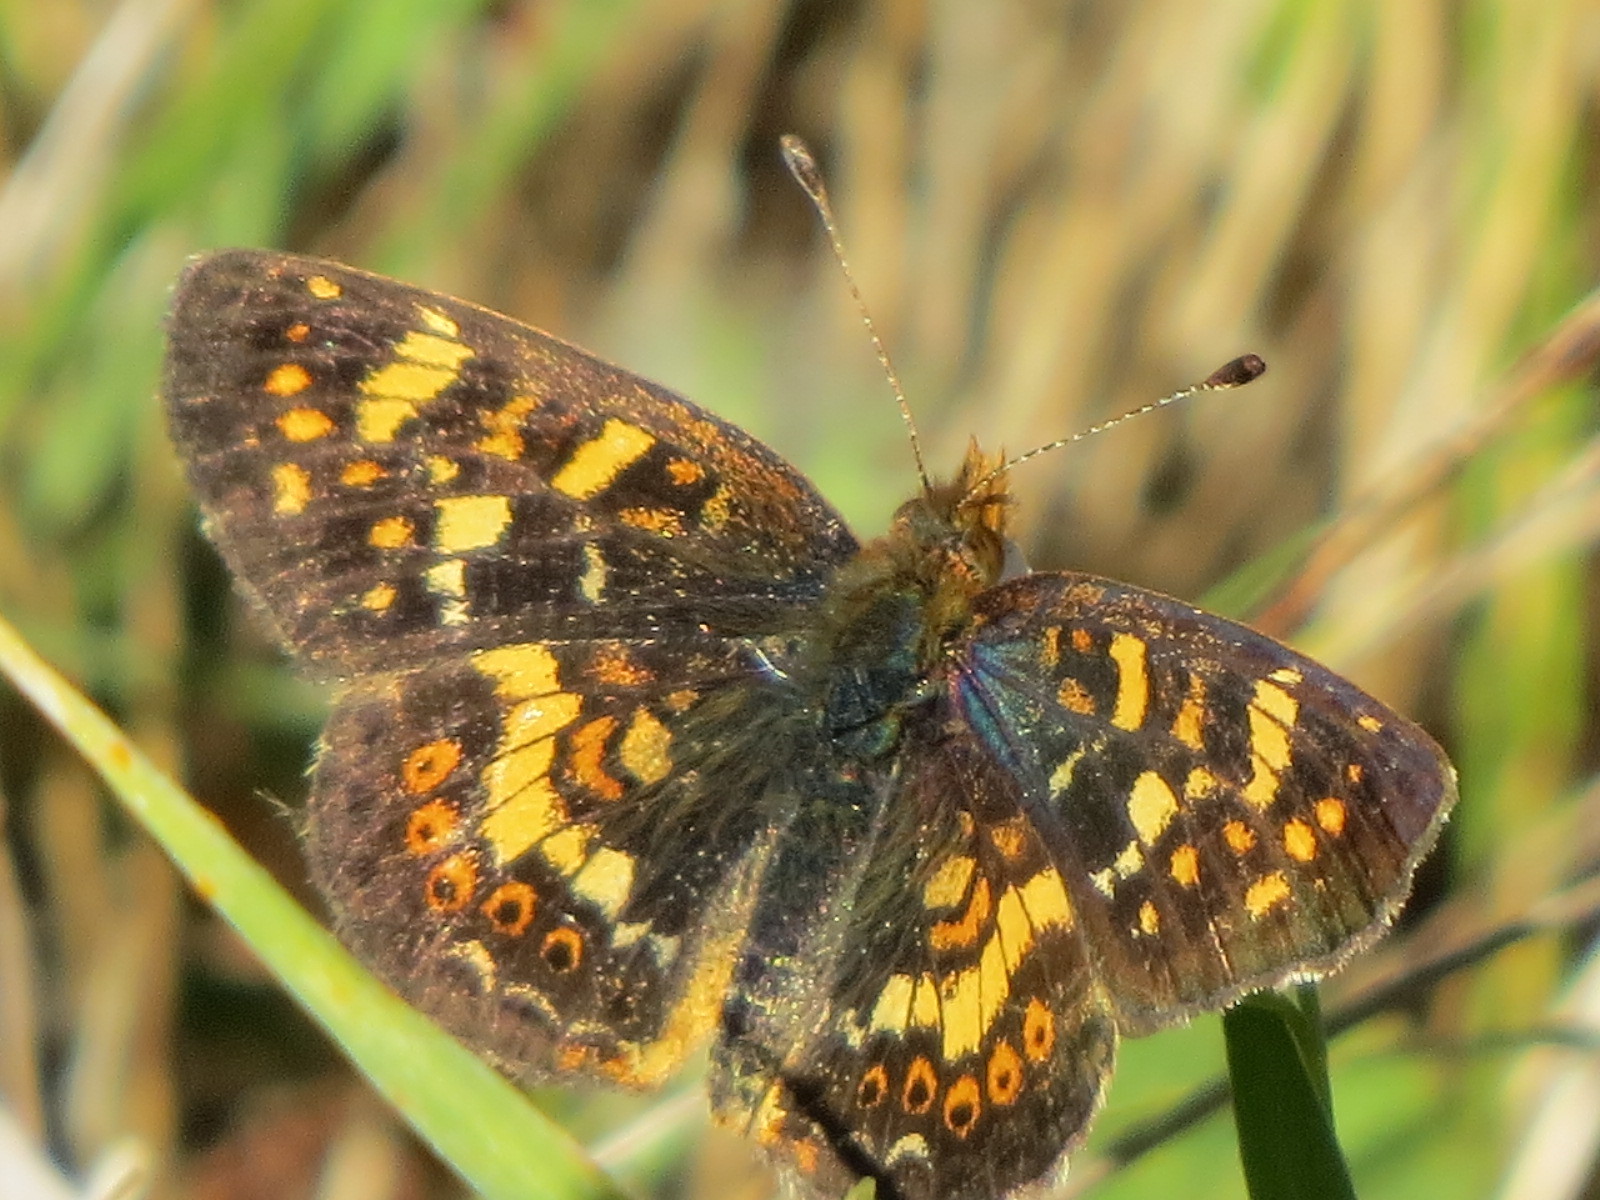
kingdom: Animalia
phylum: Arthropoda
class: Insecta
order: Lepidoptera
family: Nymphalidae
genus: Phyciodes
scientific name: Phyciodes tharos
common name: Pearl crescent
